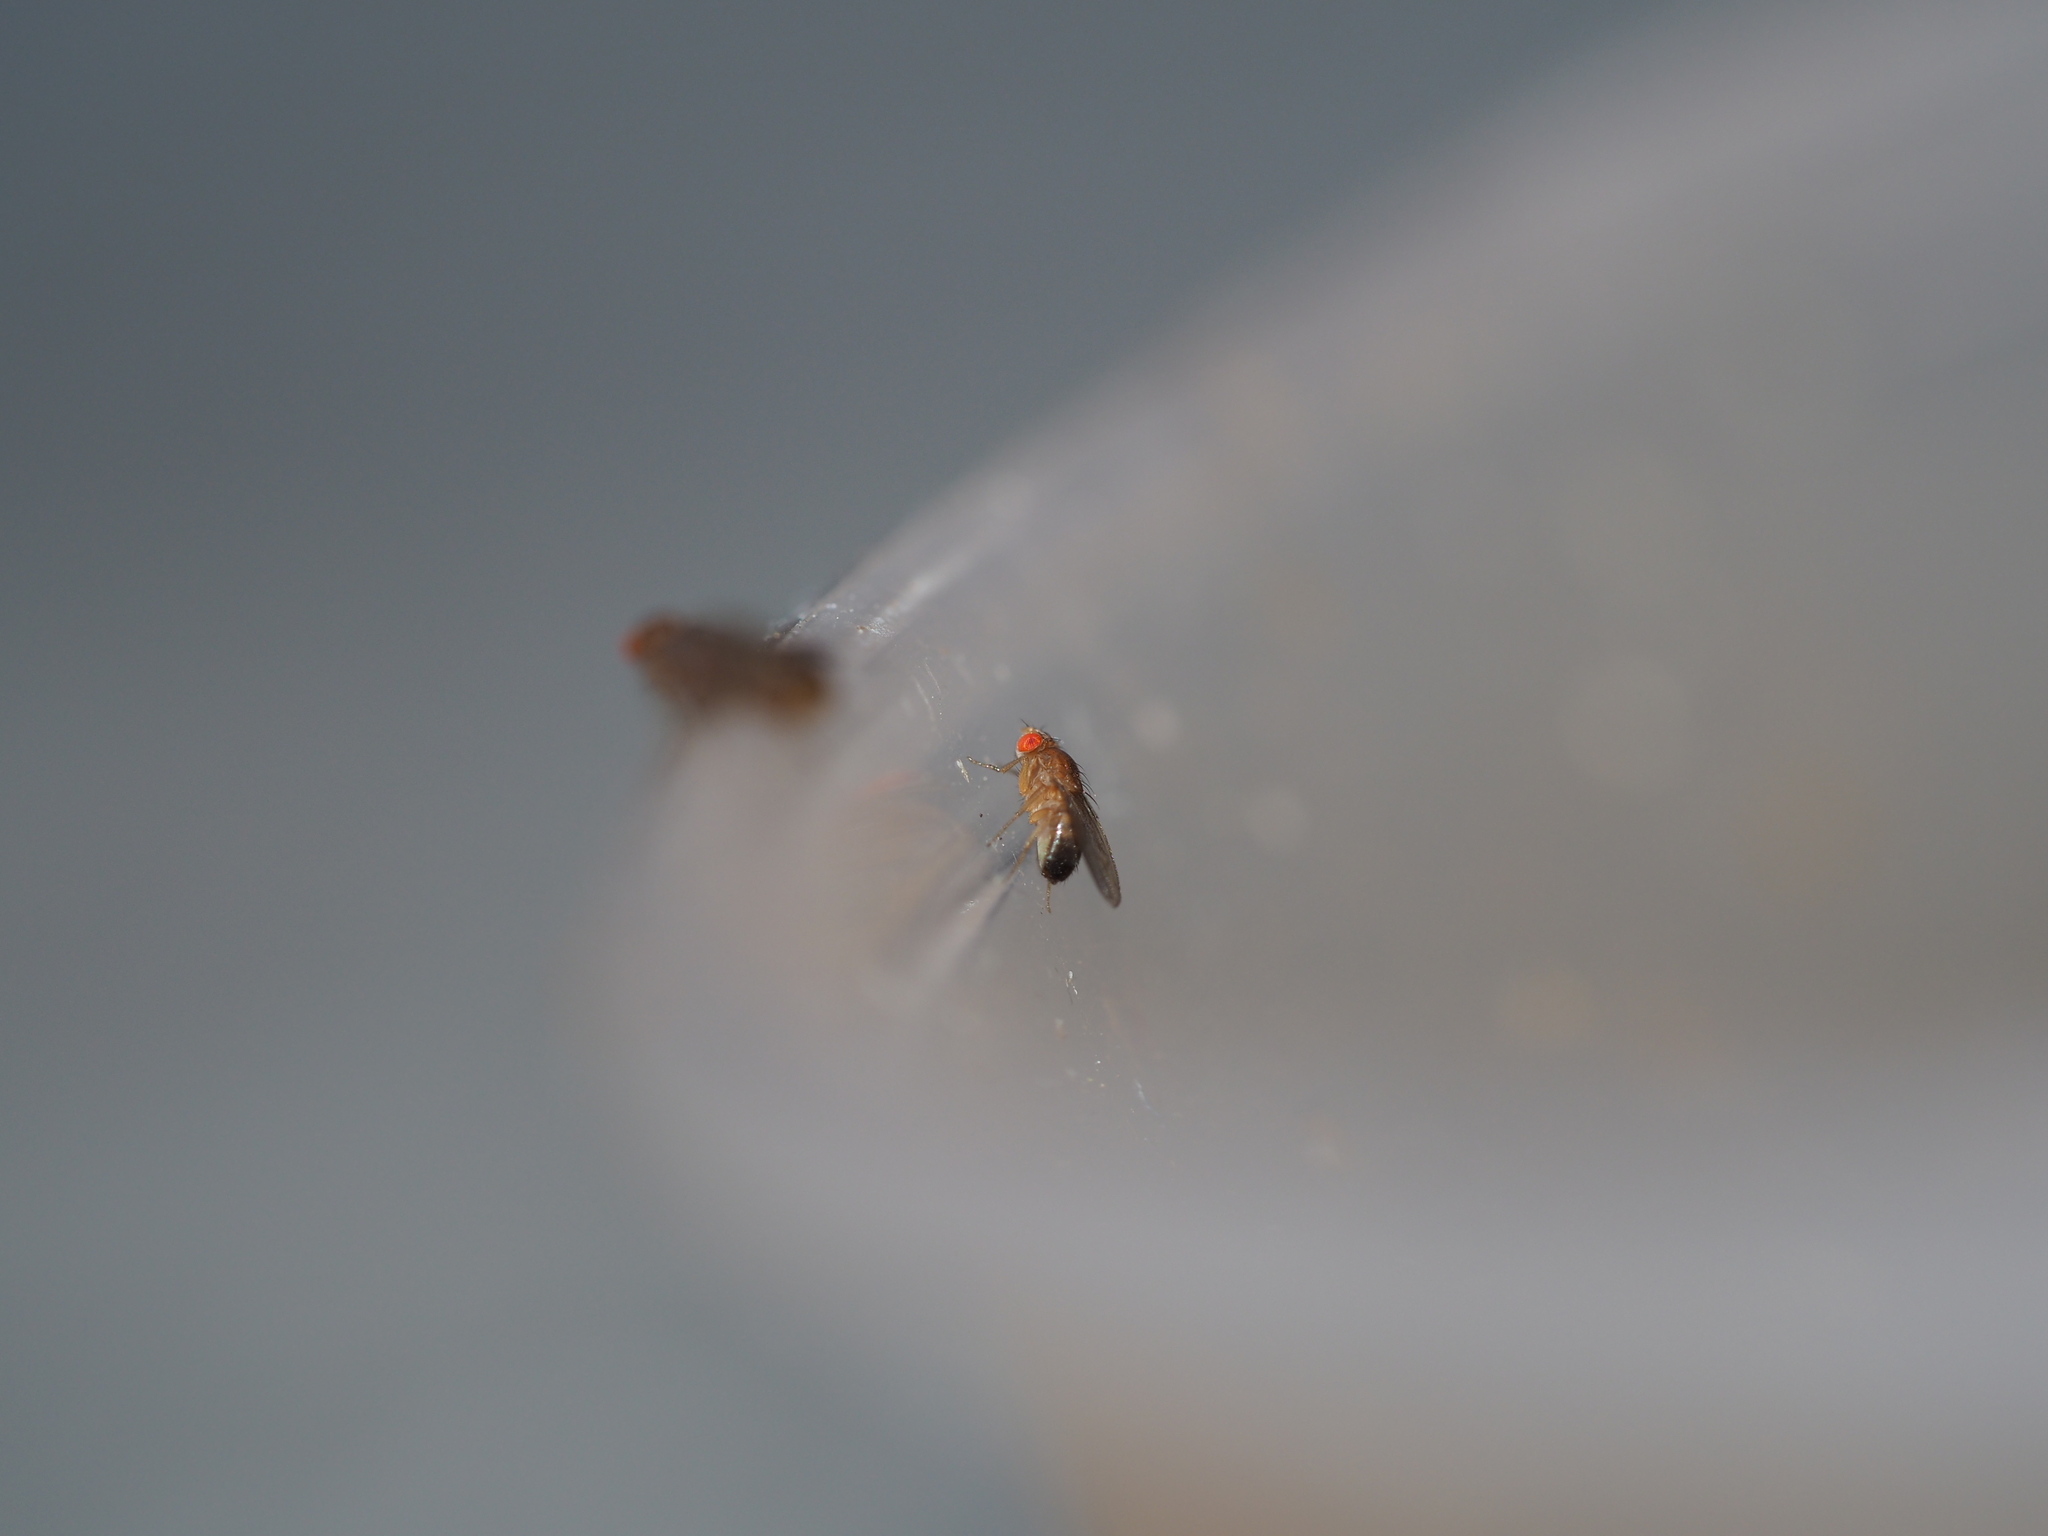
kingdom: Animalia
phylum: Arthropoda
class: Insecta
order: Diptera
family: Drosophilidae
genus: Drosophila
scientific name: Drosophila melanogaster
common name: Pomace fly
